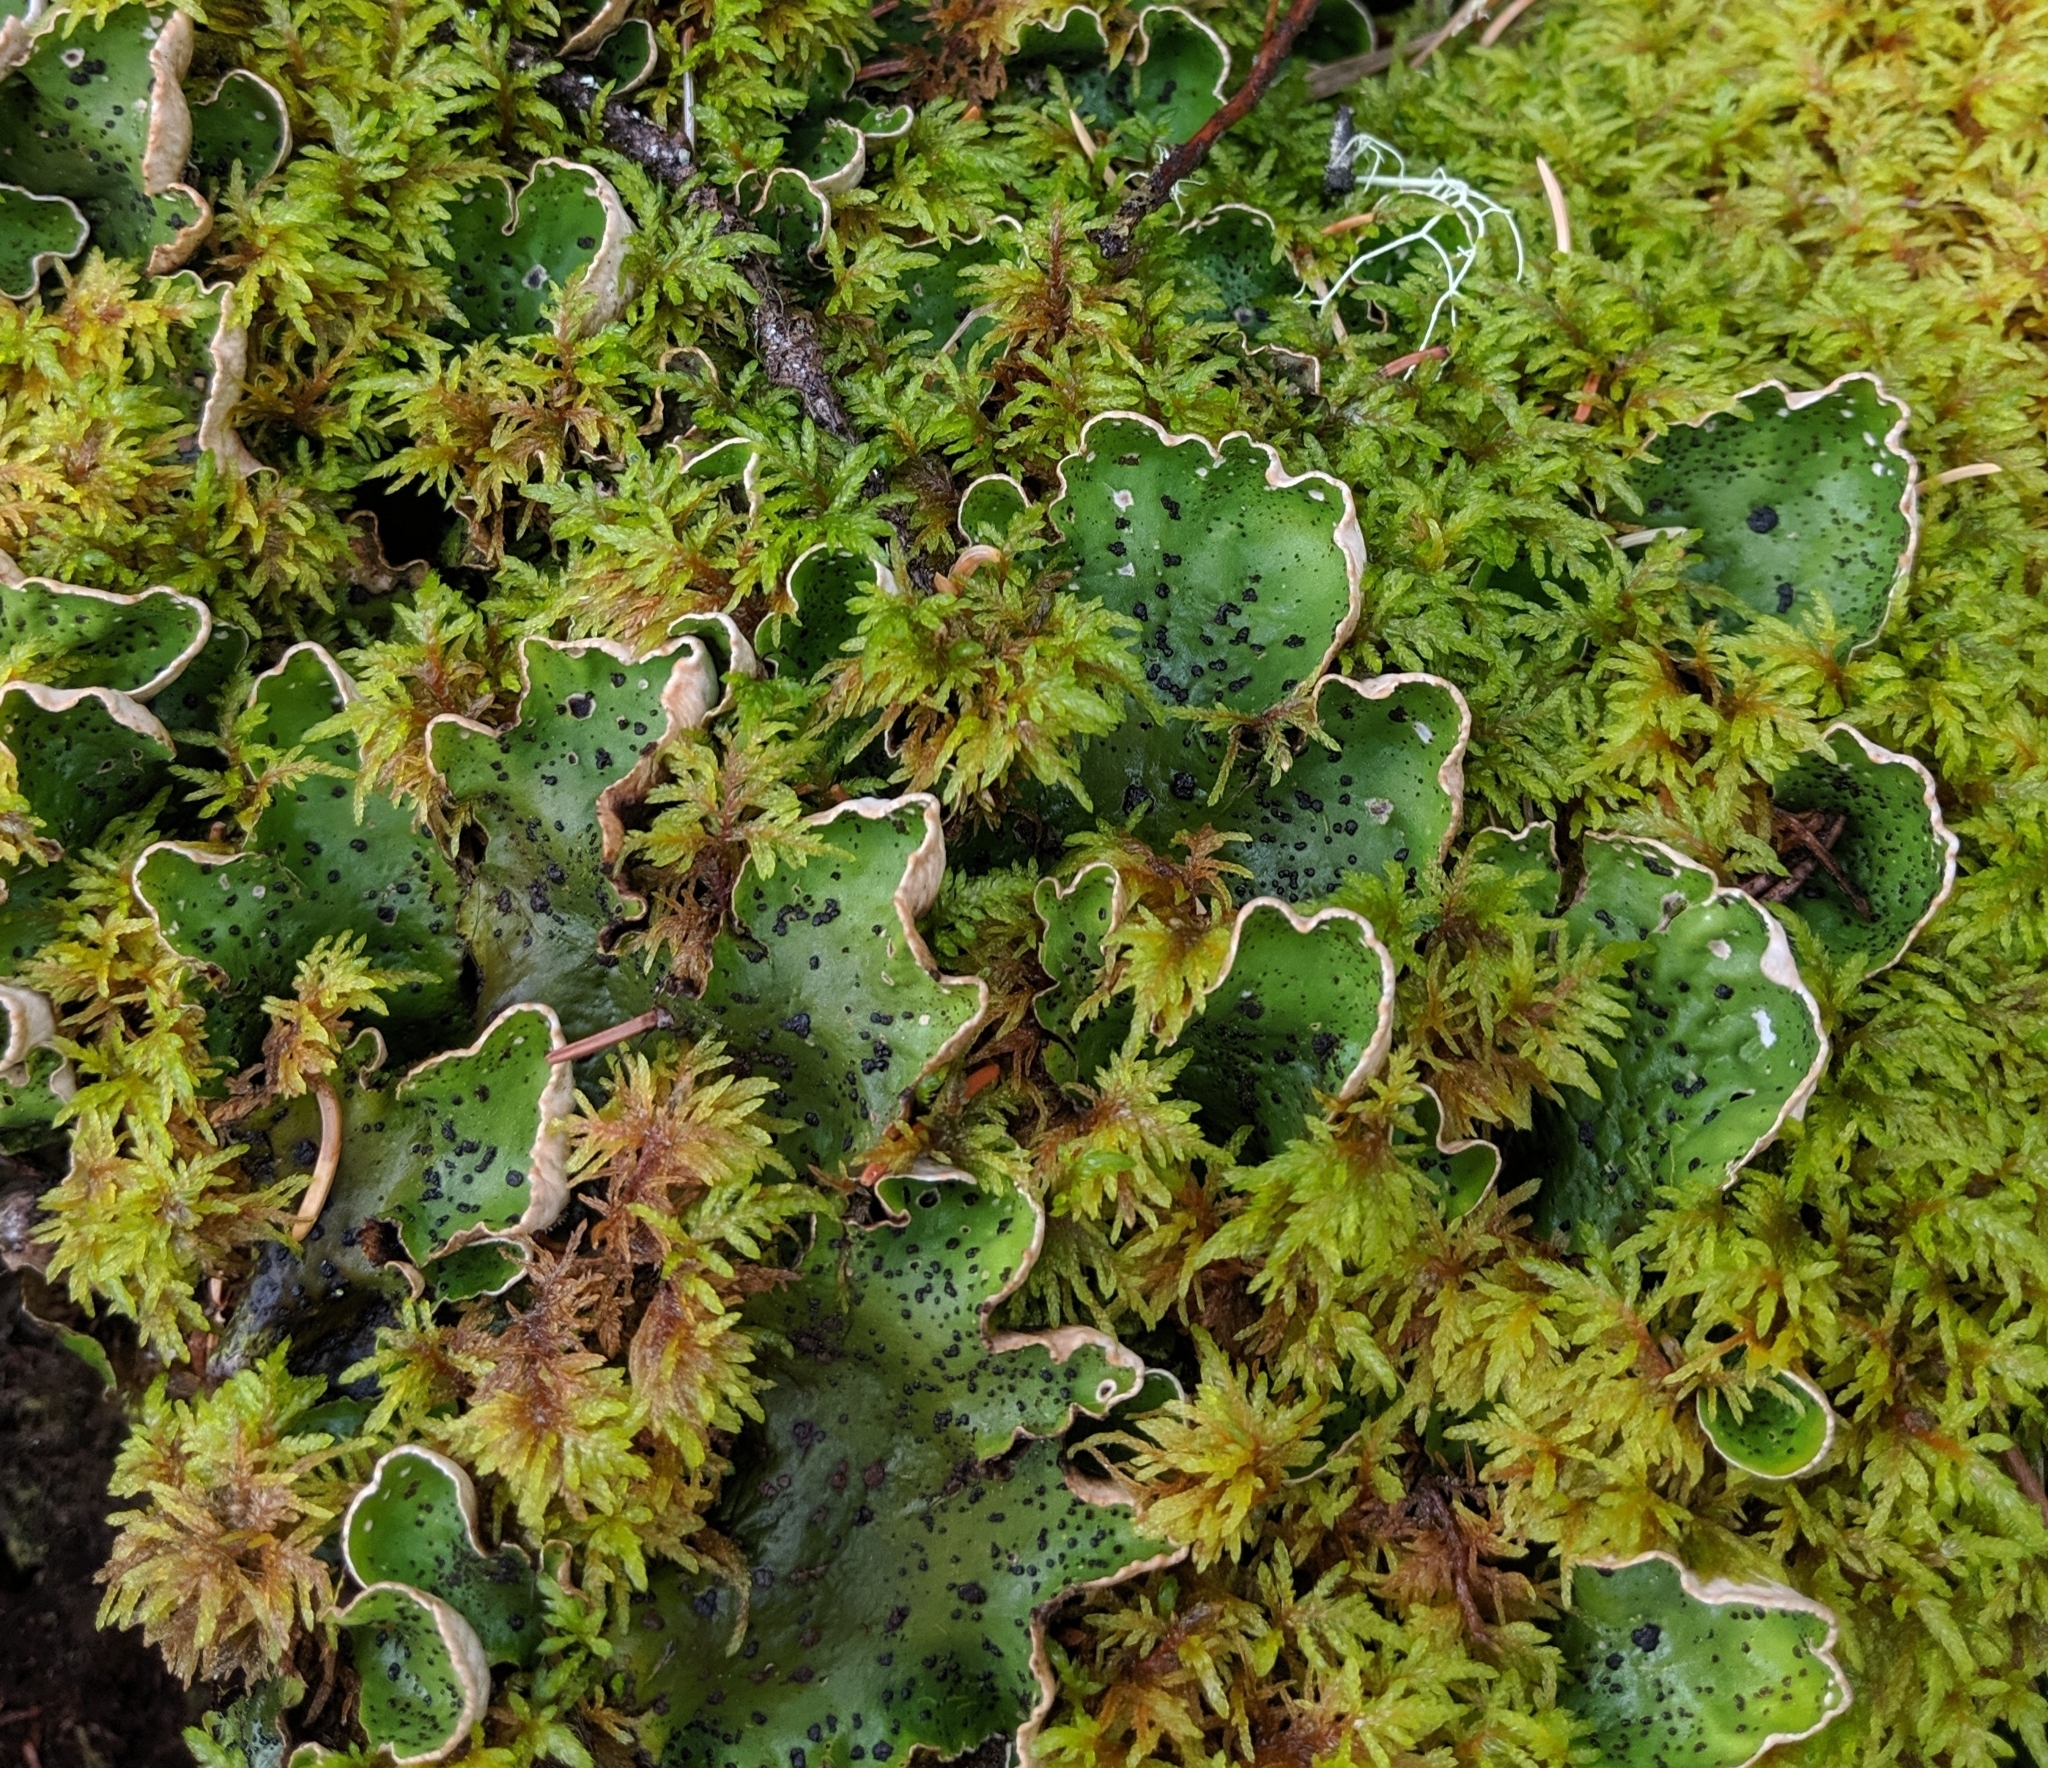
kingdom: Fungi
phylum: Ascomycota
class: Lecanoromycetes
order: Peltigerales
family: Peltigeraceae
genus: Peltigera
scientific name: Peltigera aphthosa
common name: Common freckle pelt lichen
